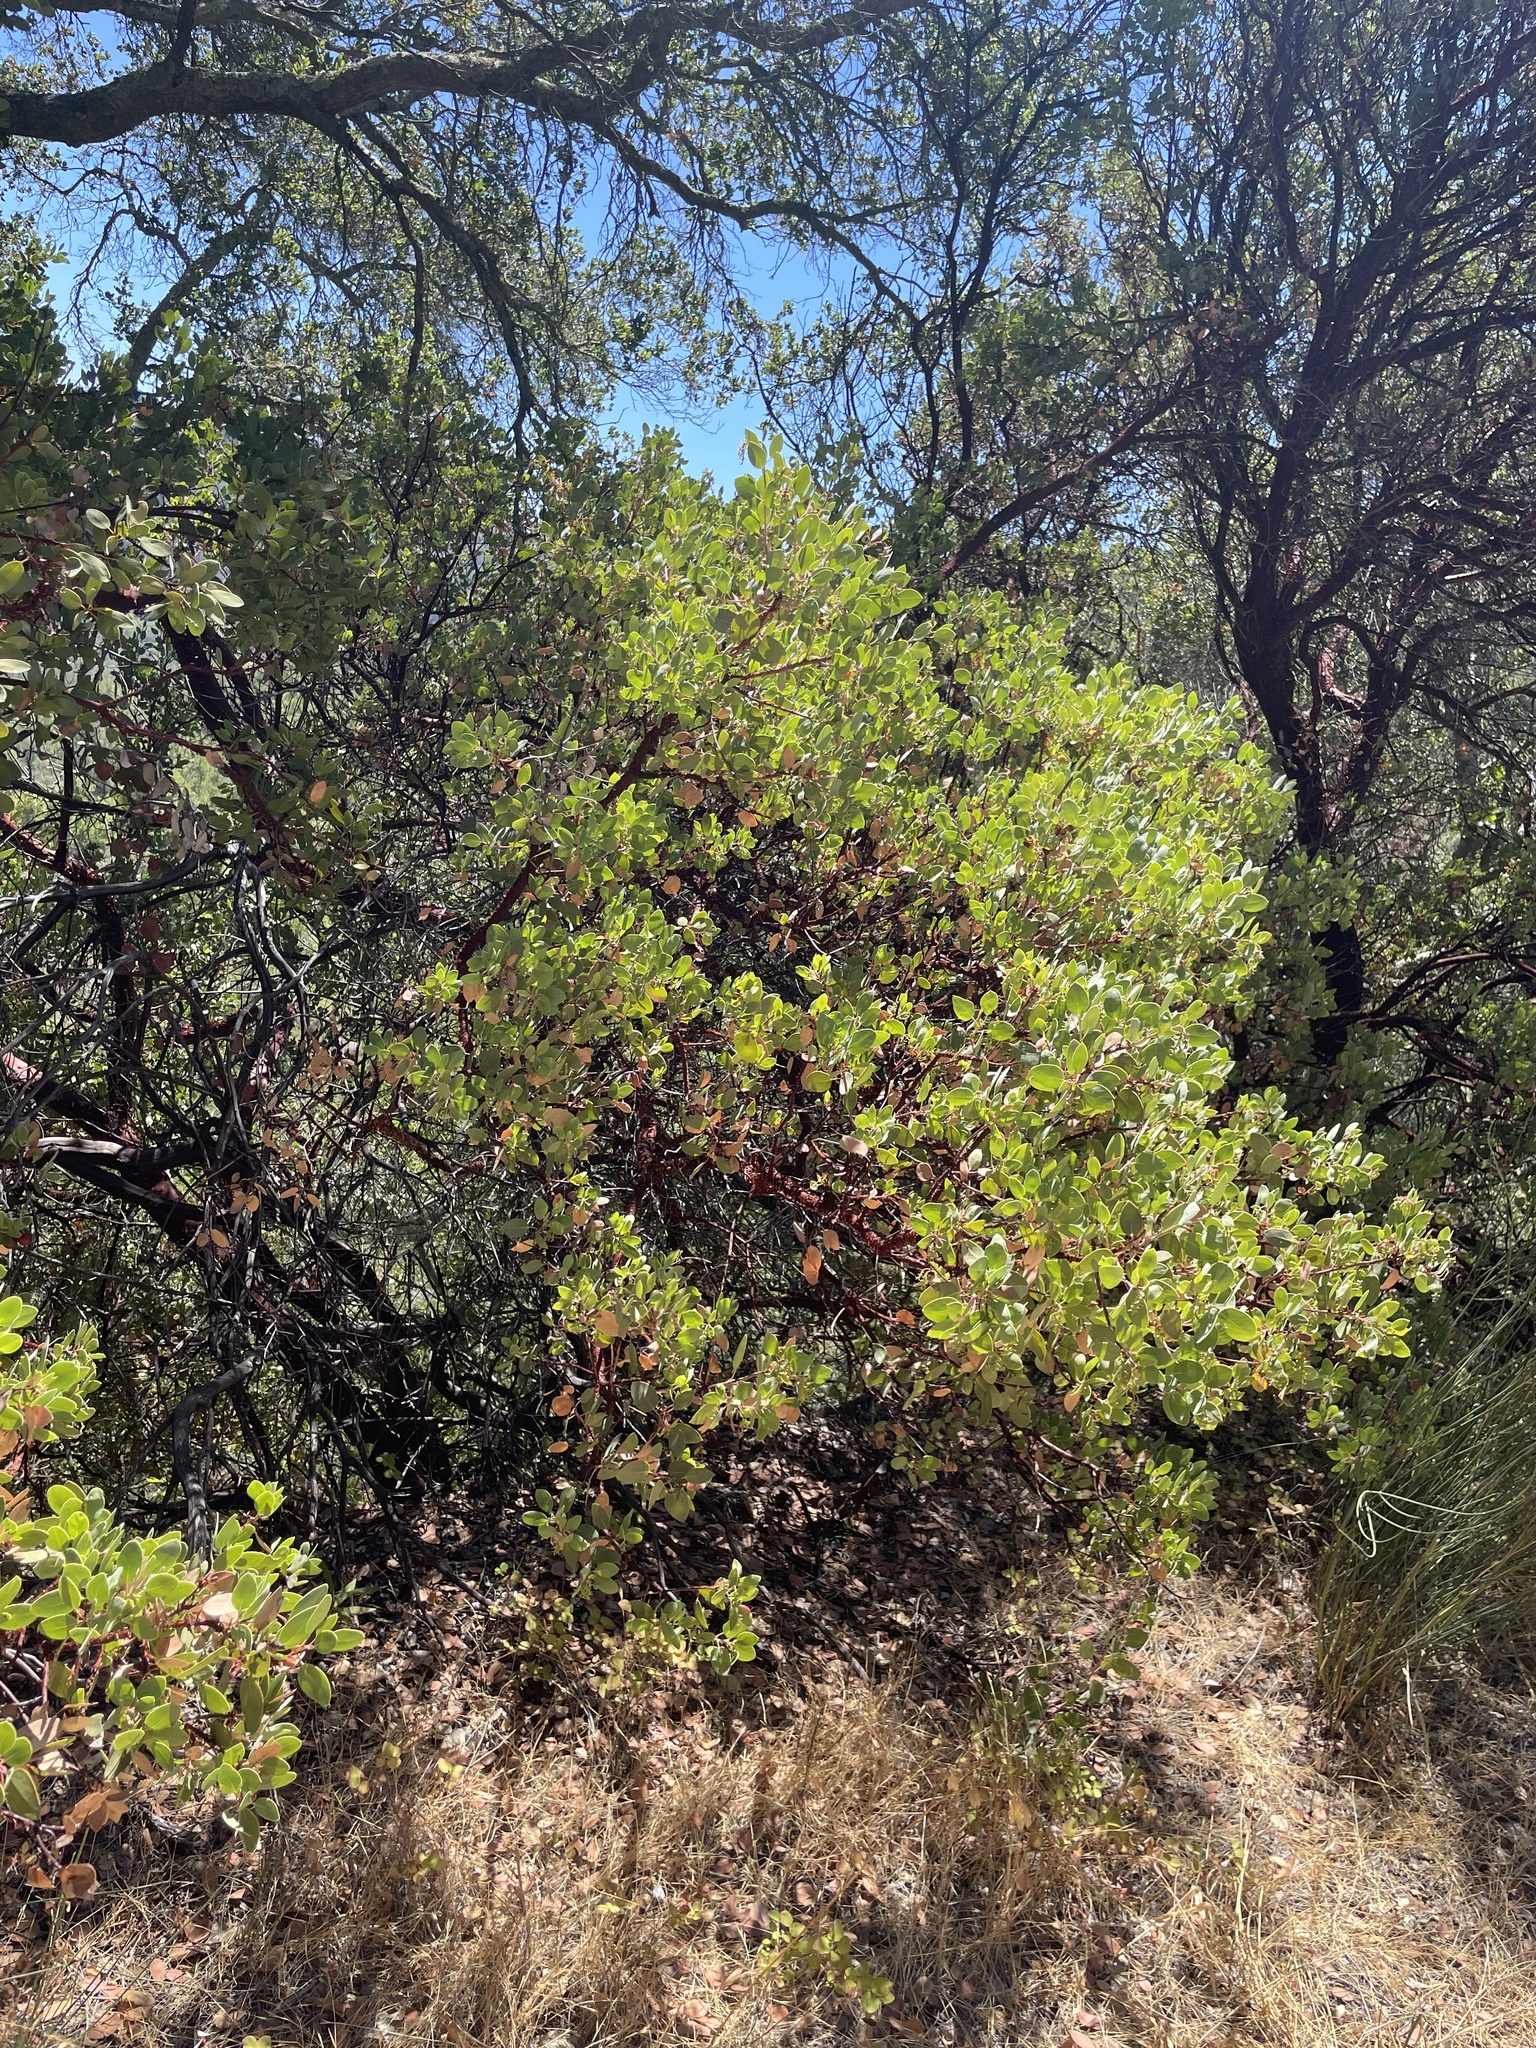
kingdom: Plantae
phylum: Tracheophyta
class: Magnoliopsida
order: Ericales
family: Ericaceae
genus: Arctostaphylos
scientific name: Arctostaphylos glauca
